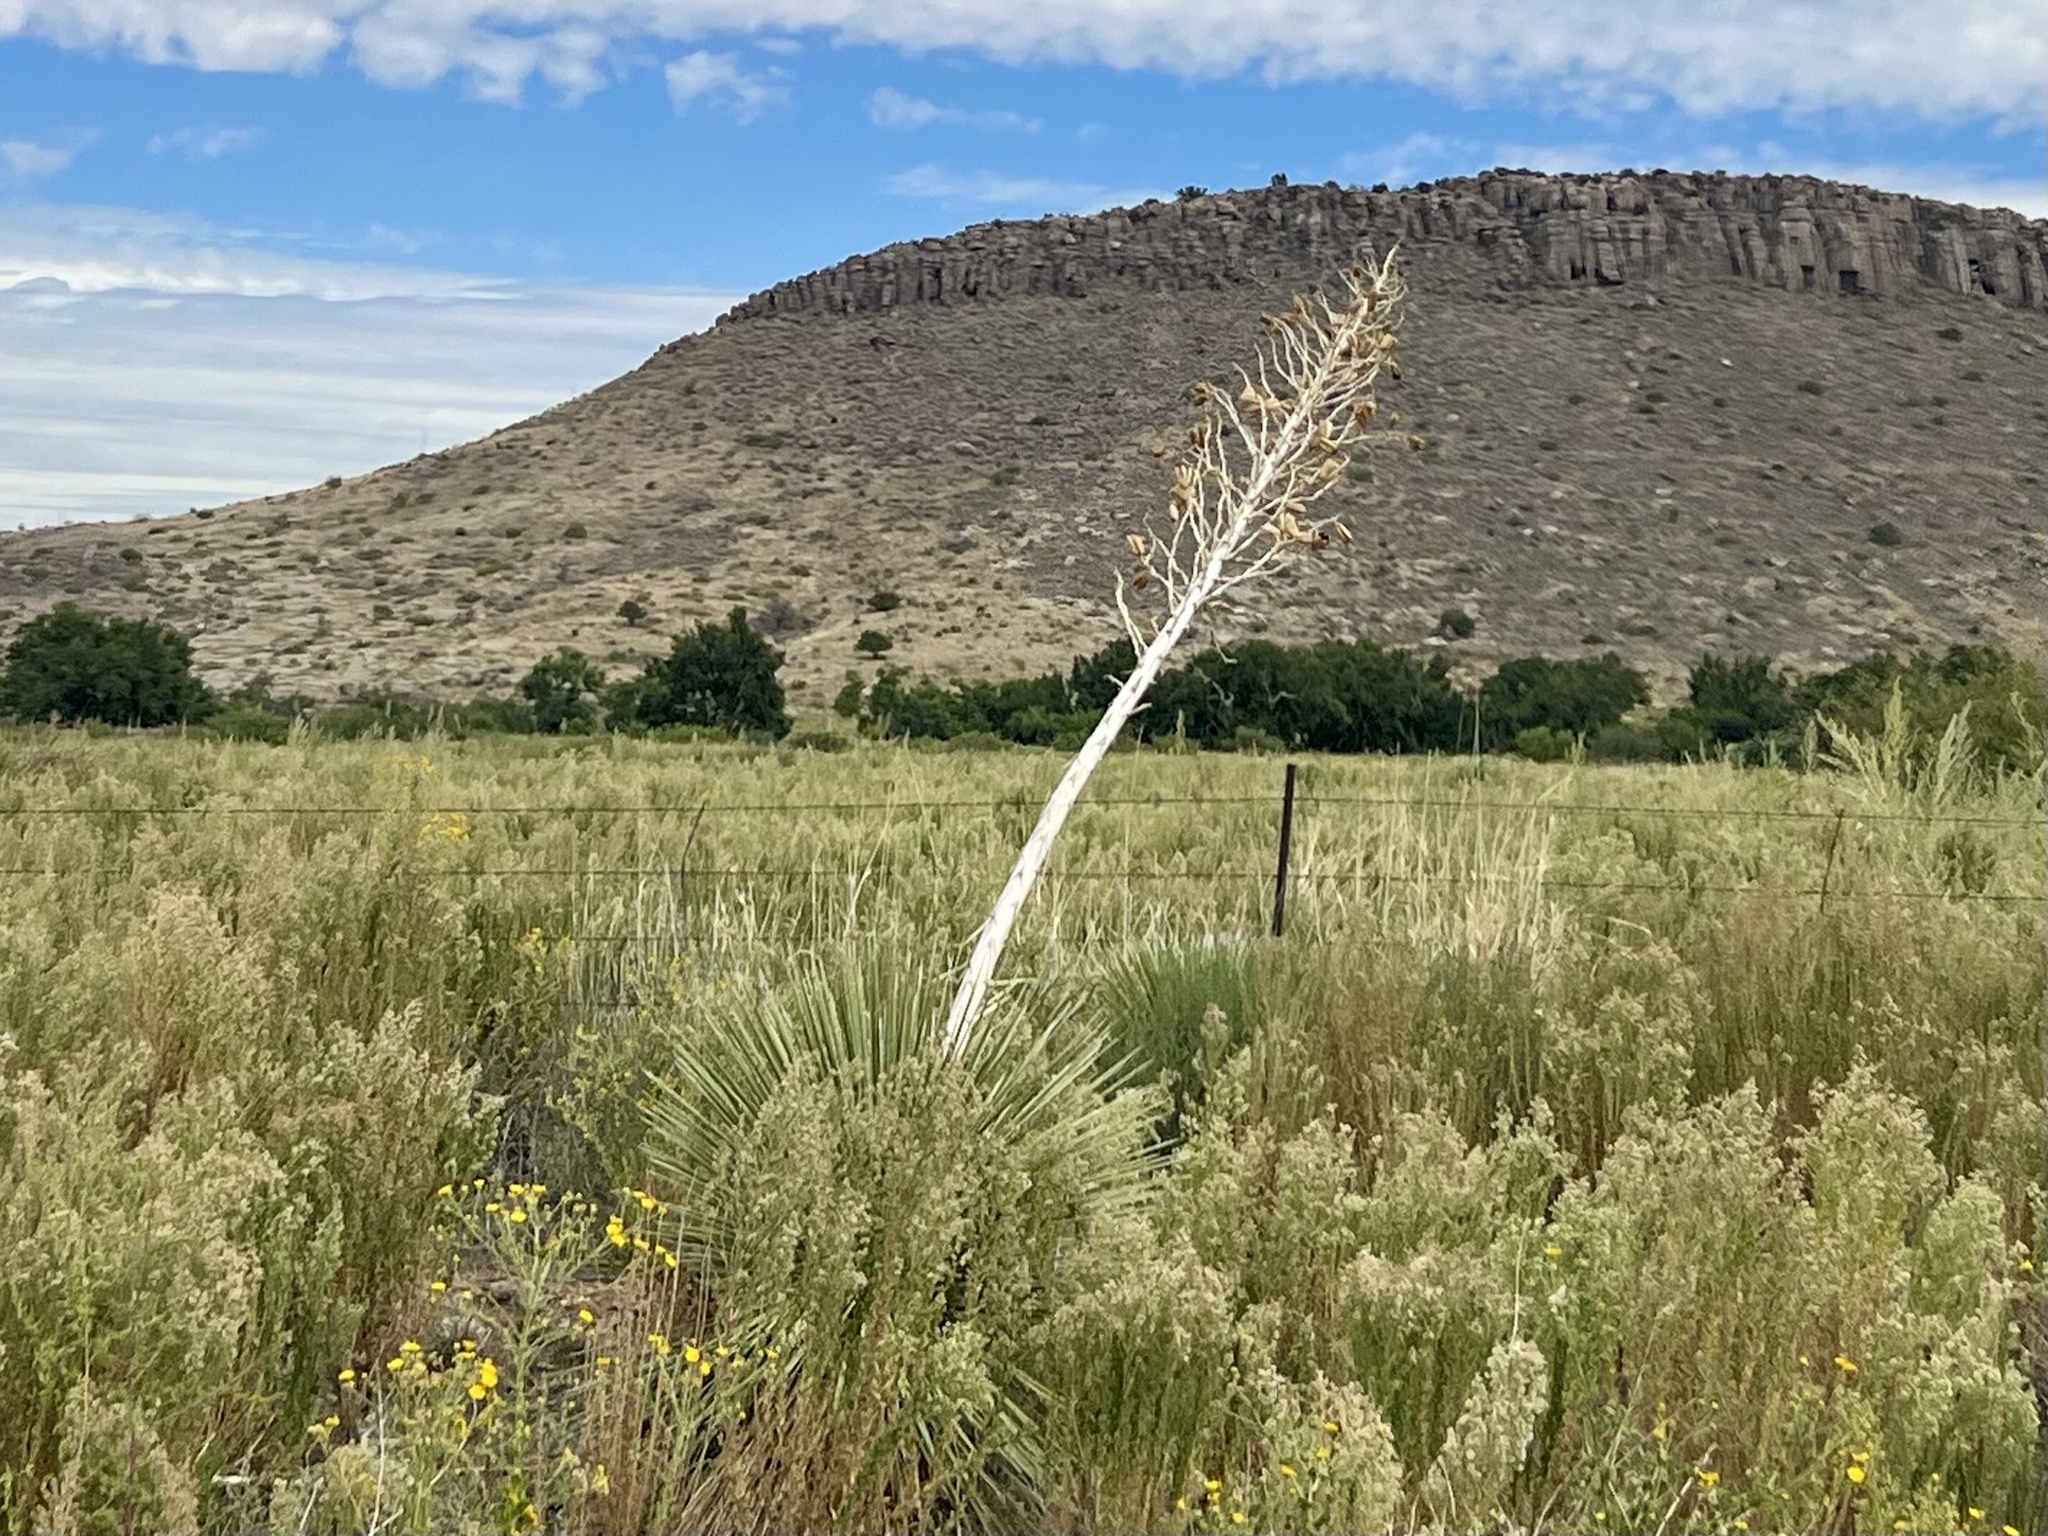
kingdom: Plantae
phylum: Tracheophyta
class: Liliopsida
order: Asparagales
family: Asparagaceae
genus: Yucca
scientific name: Yucca elata
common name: Palmella
